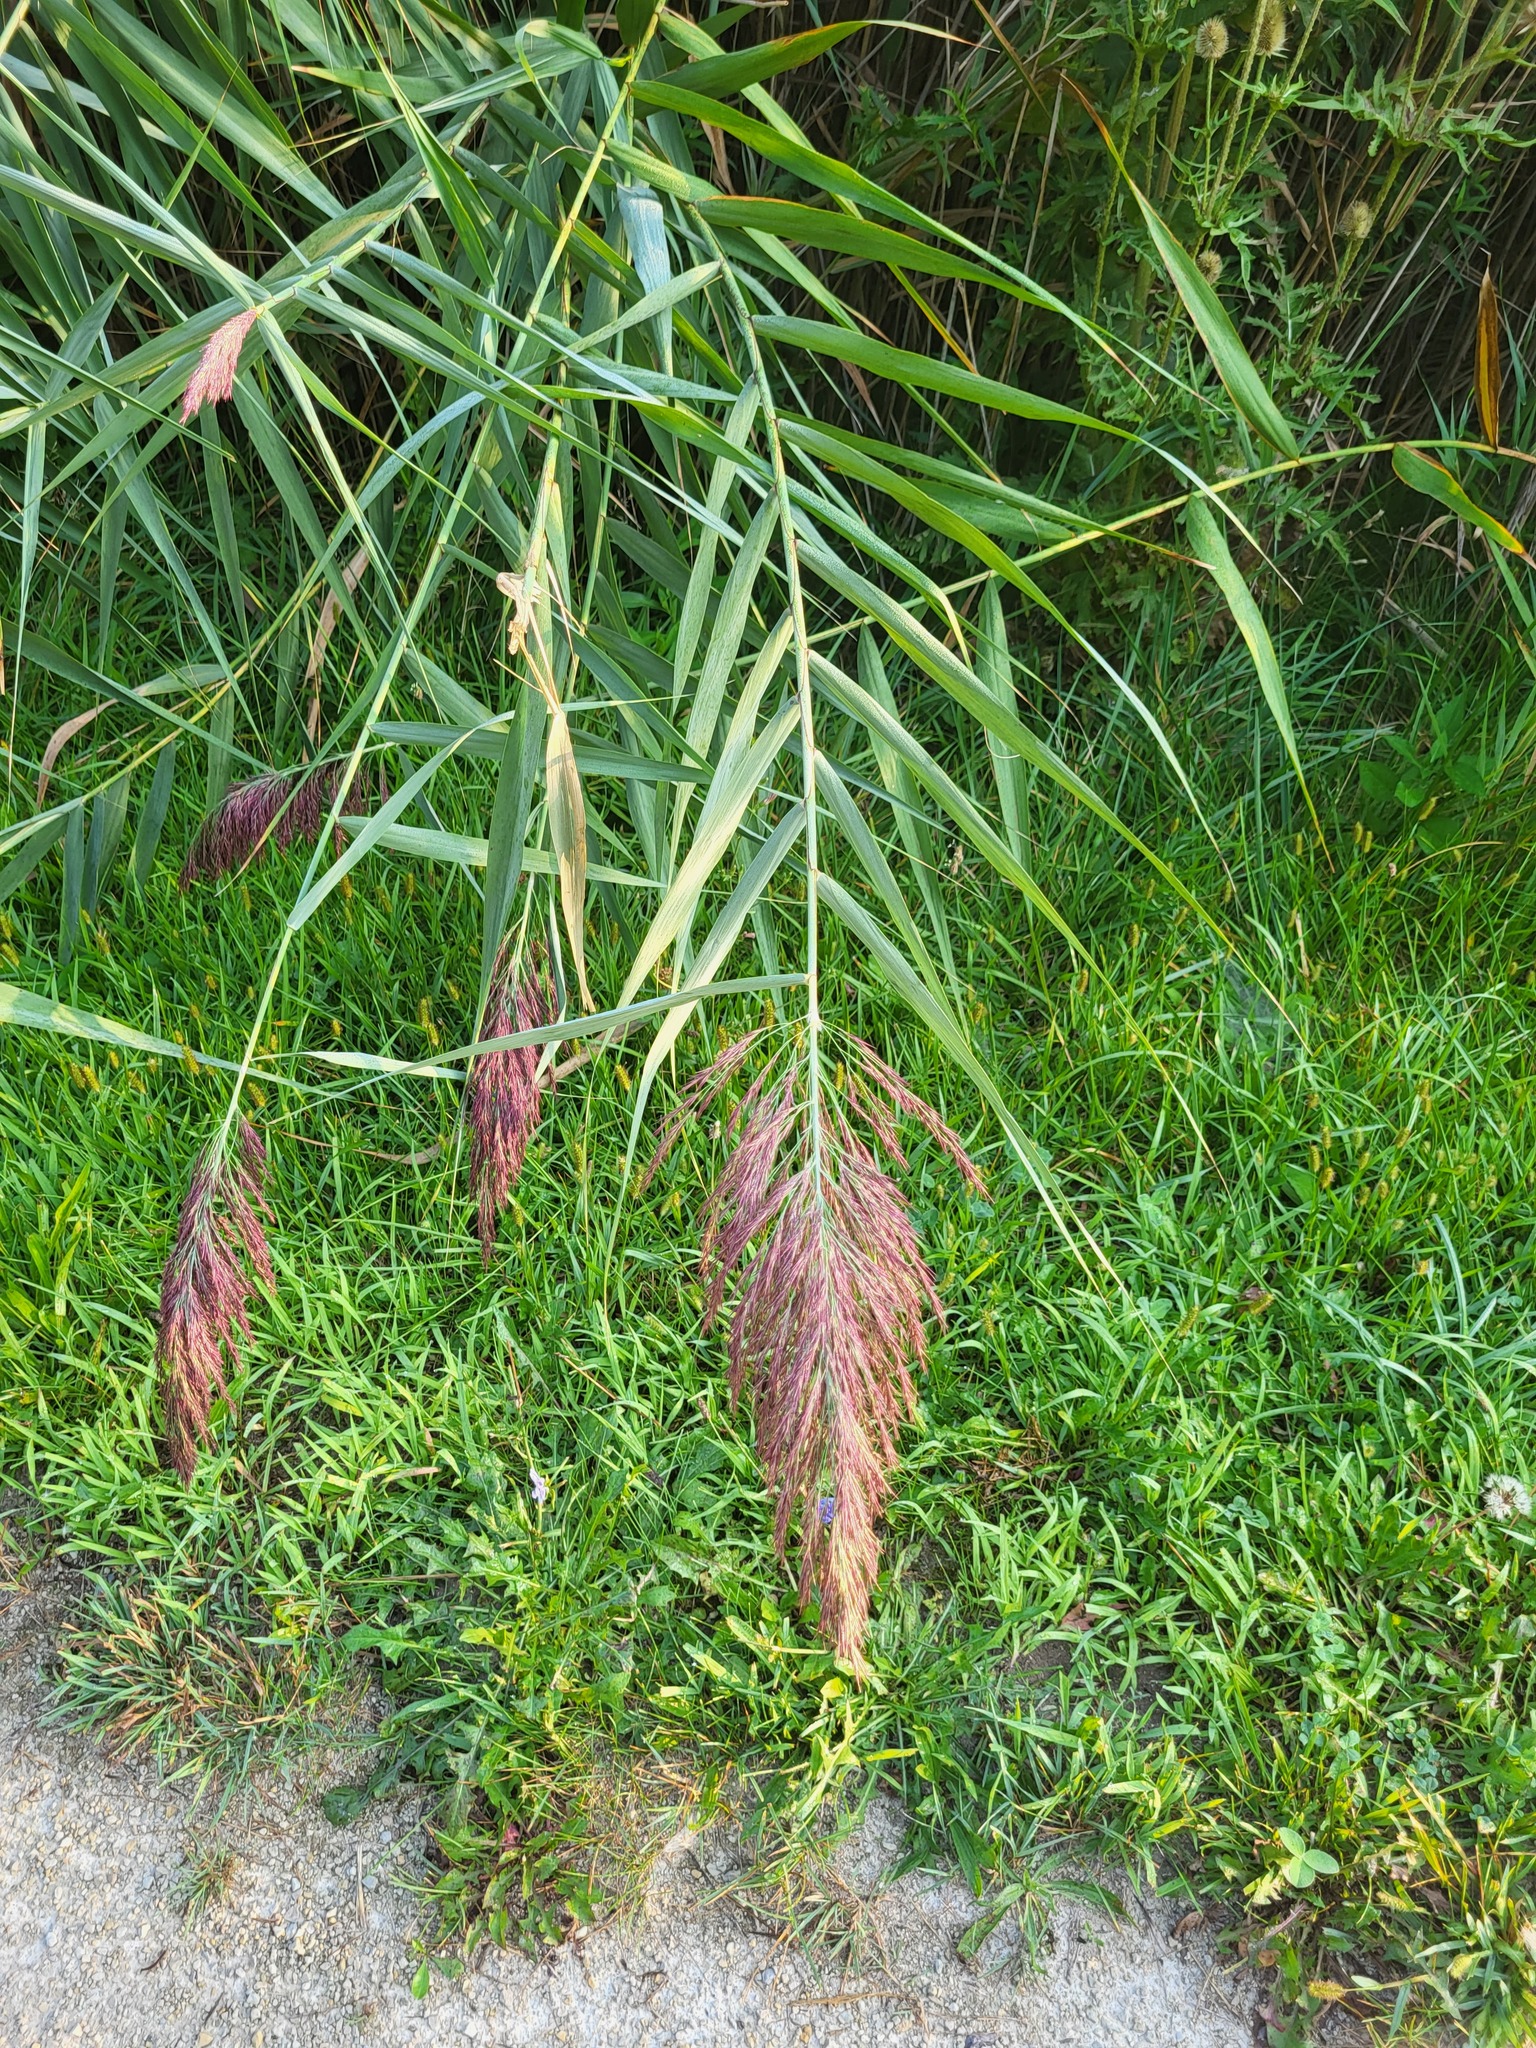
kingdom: Plantae
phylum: Tracheophyta
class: Liliopsida
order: Poales
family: Poaceae
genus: Phragmites
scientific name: Phragmites australis
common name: Common reed
